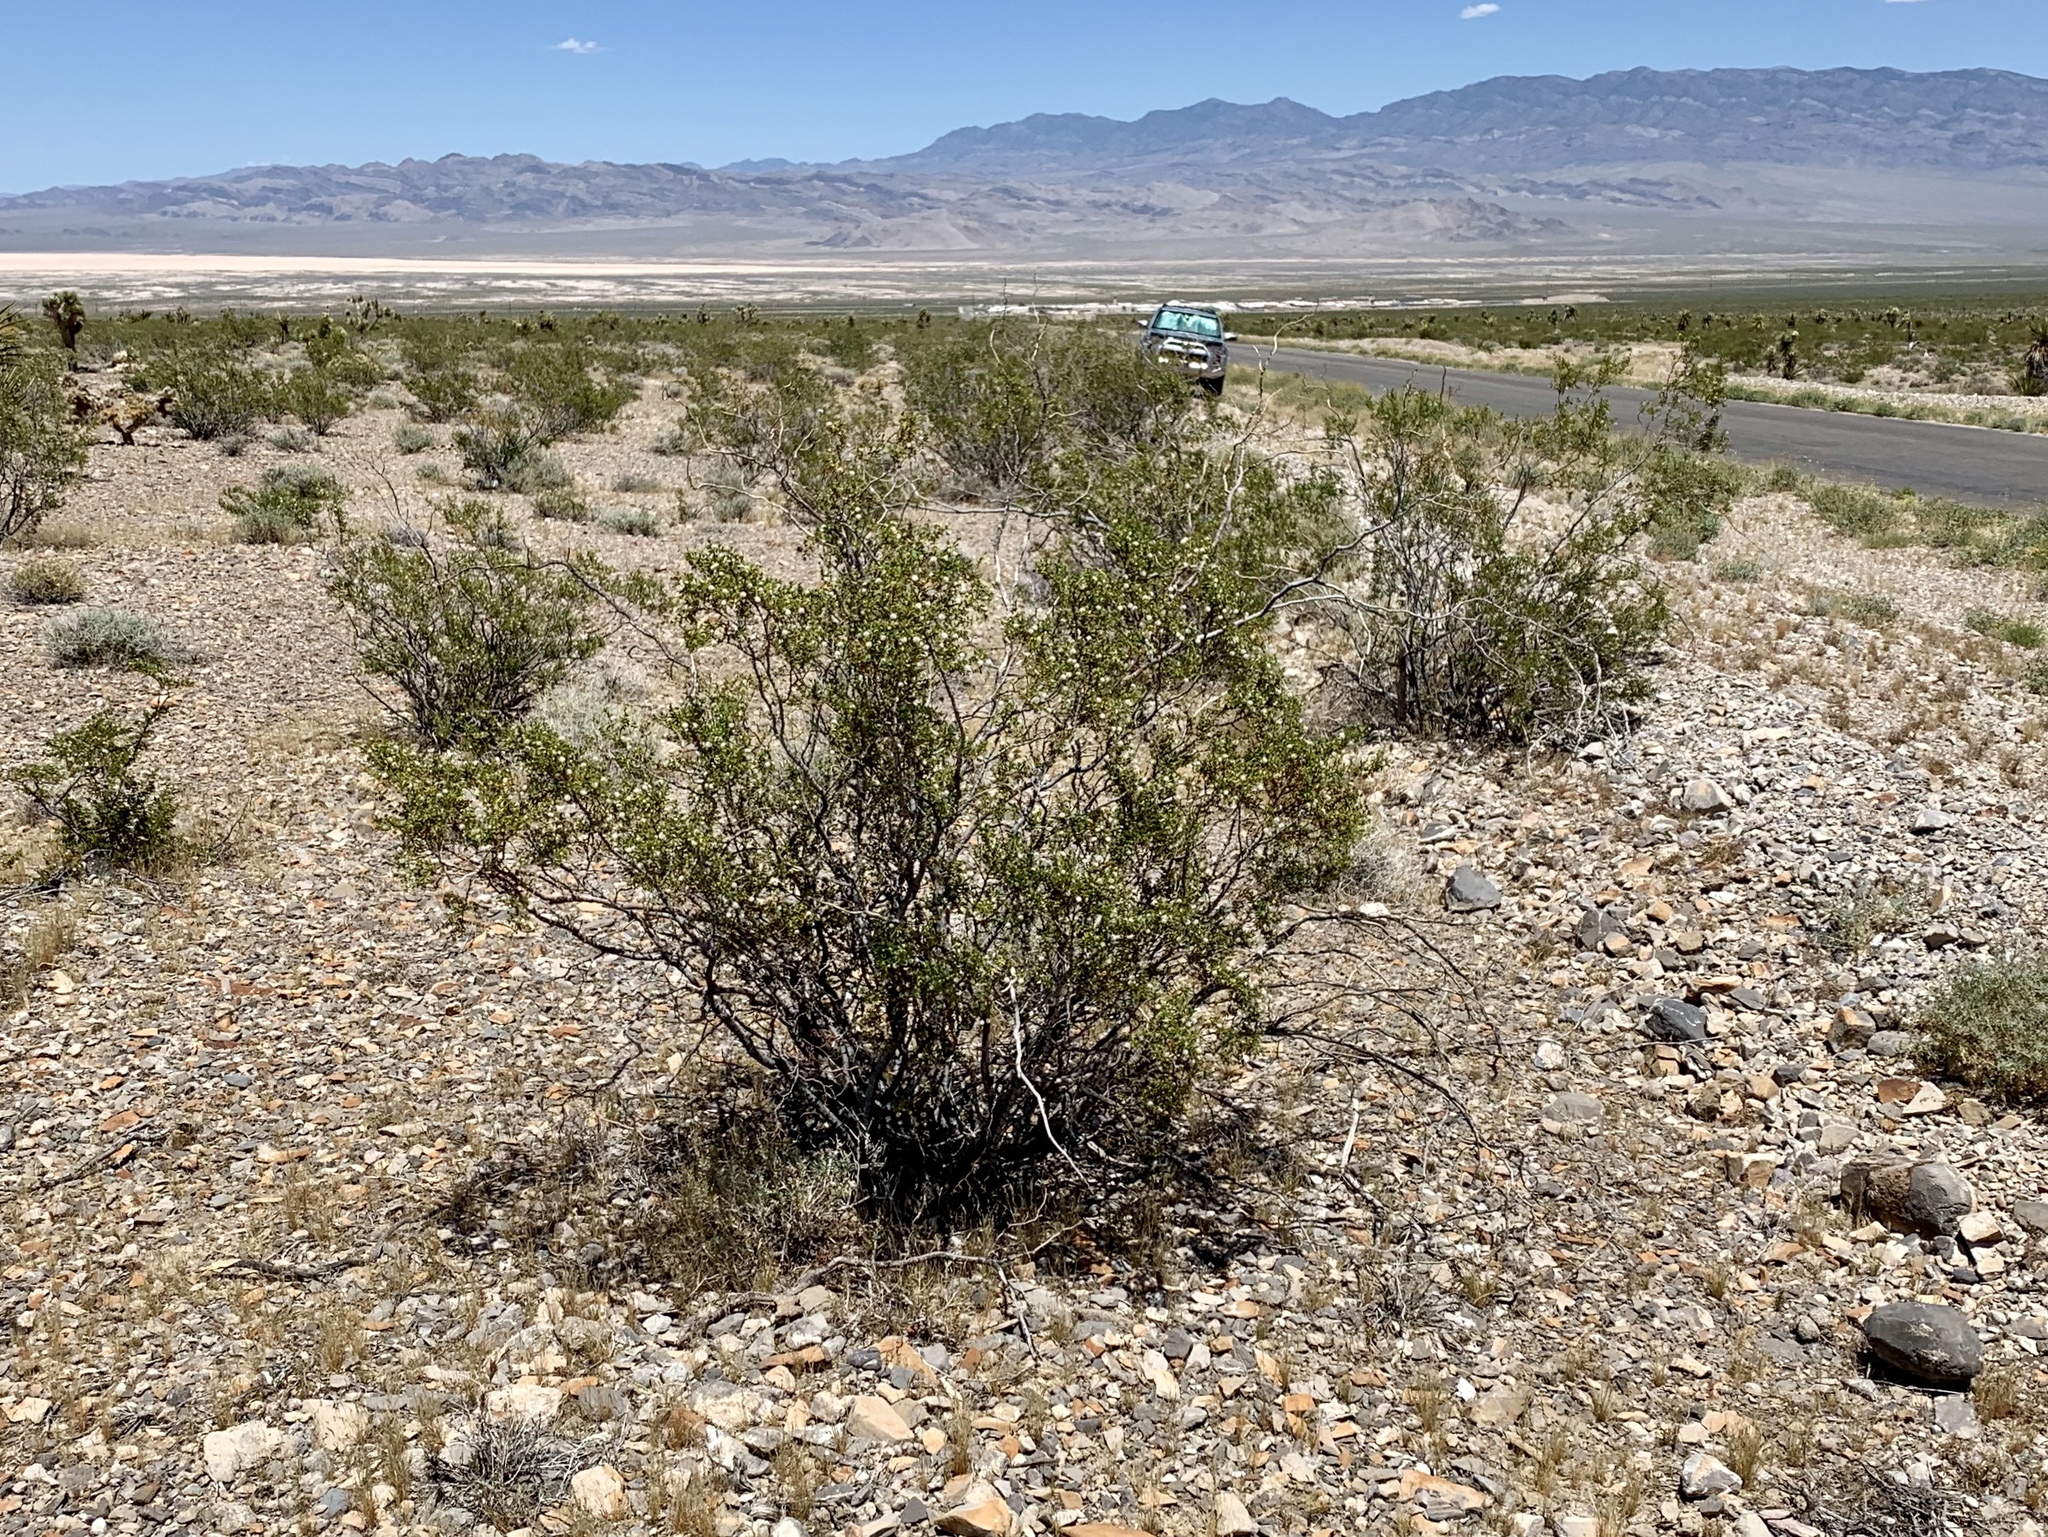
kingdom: Plantae
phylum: Tracheophyta
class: Magnoliopsida
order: Zygophyllales
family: Zygophyllaceae
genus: Larrea
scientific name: Larrea tridentata
